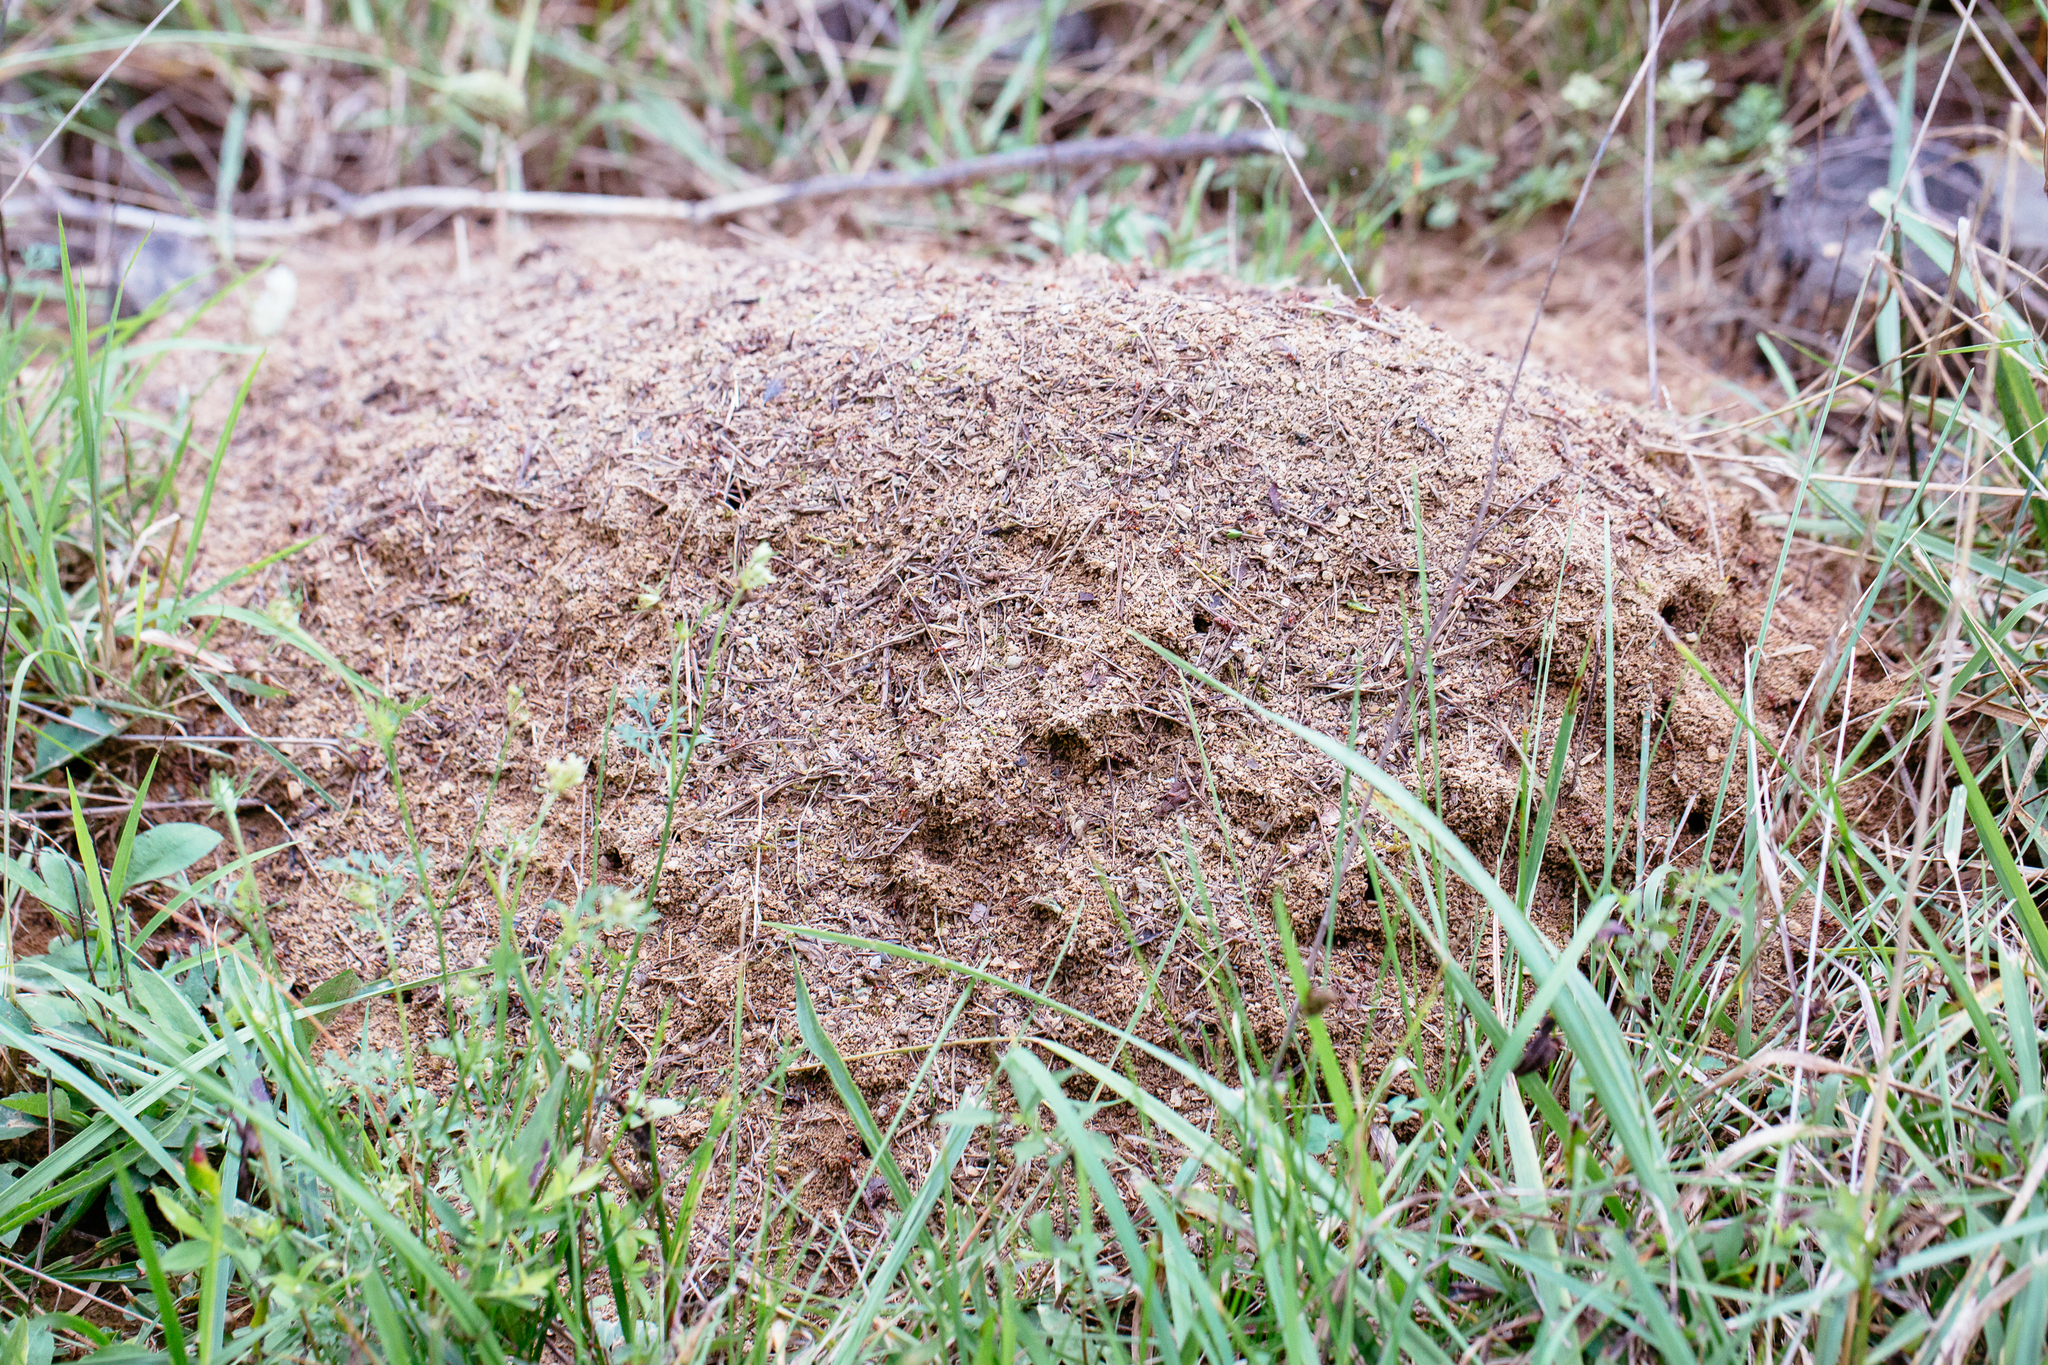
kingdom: Animalia
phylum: Arthropoda
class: Insecta
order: Hymenoptera
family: Formicidae
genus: Formica
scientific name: Formica exsectoides
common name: Allegheny mound ant
